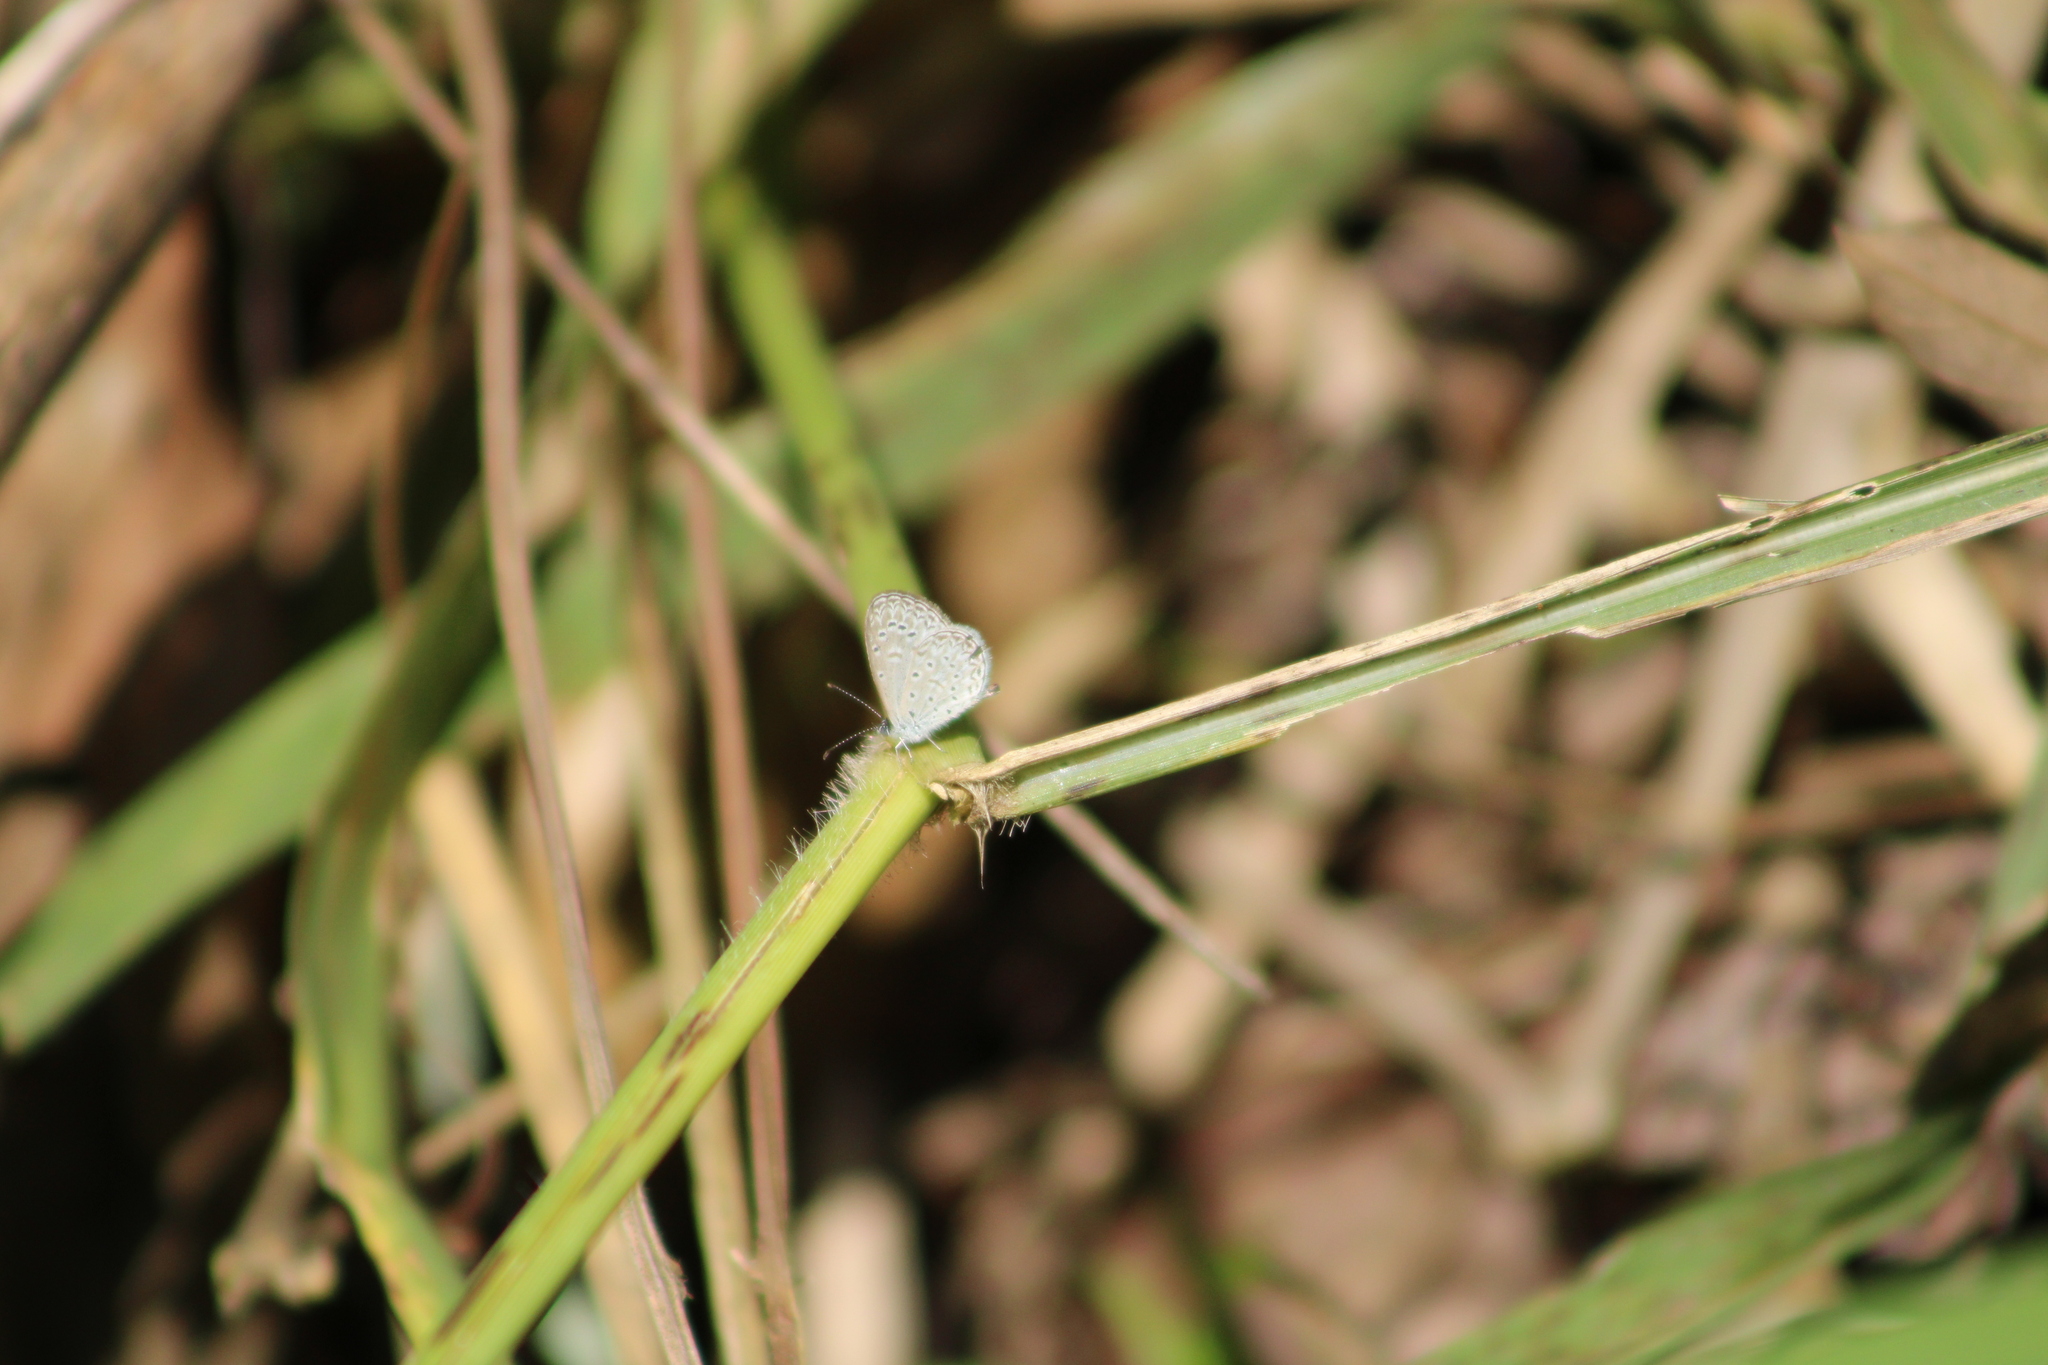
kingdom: Animalia
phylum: Arthropoda
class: Insecta
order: Lepidoptera
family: Lycaenidae
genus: Lycaena
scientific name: Lycaena cyna
